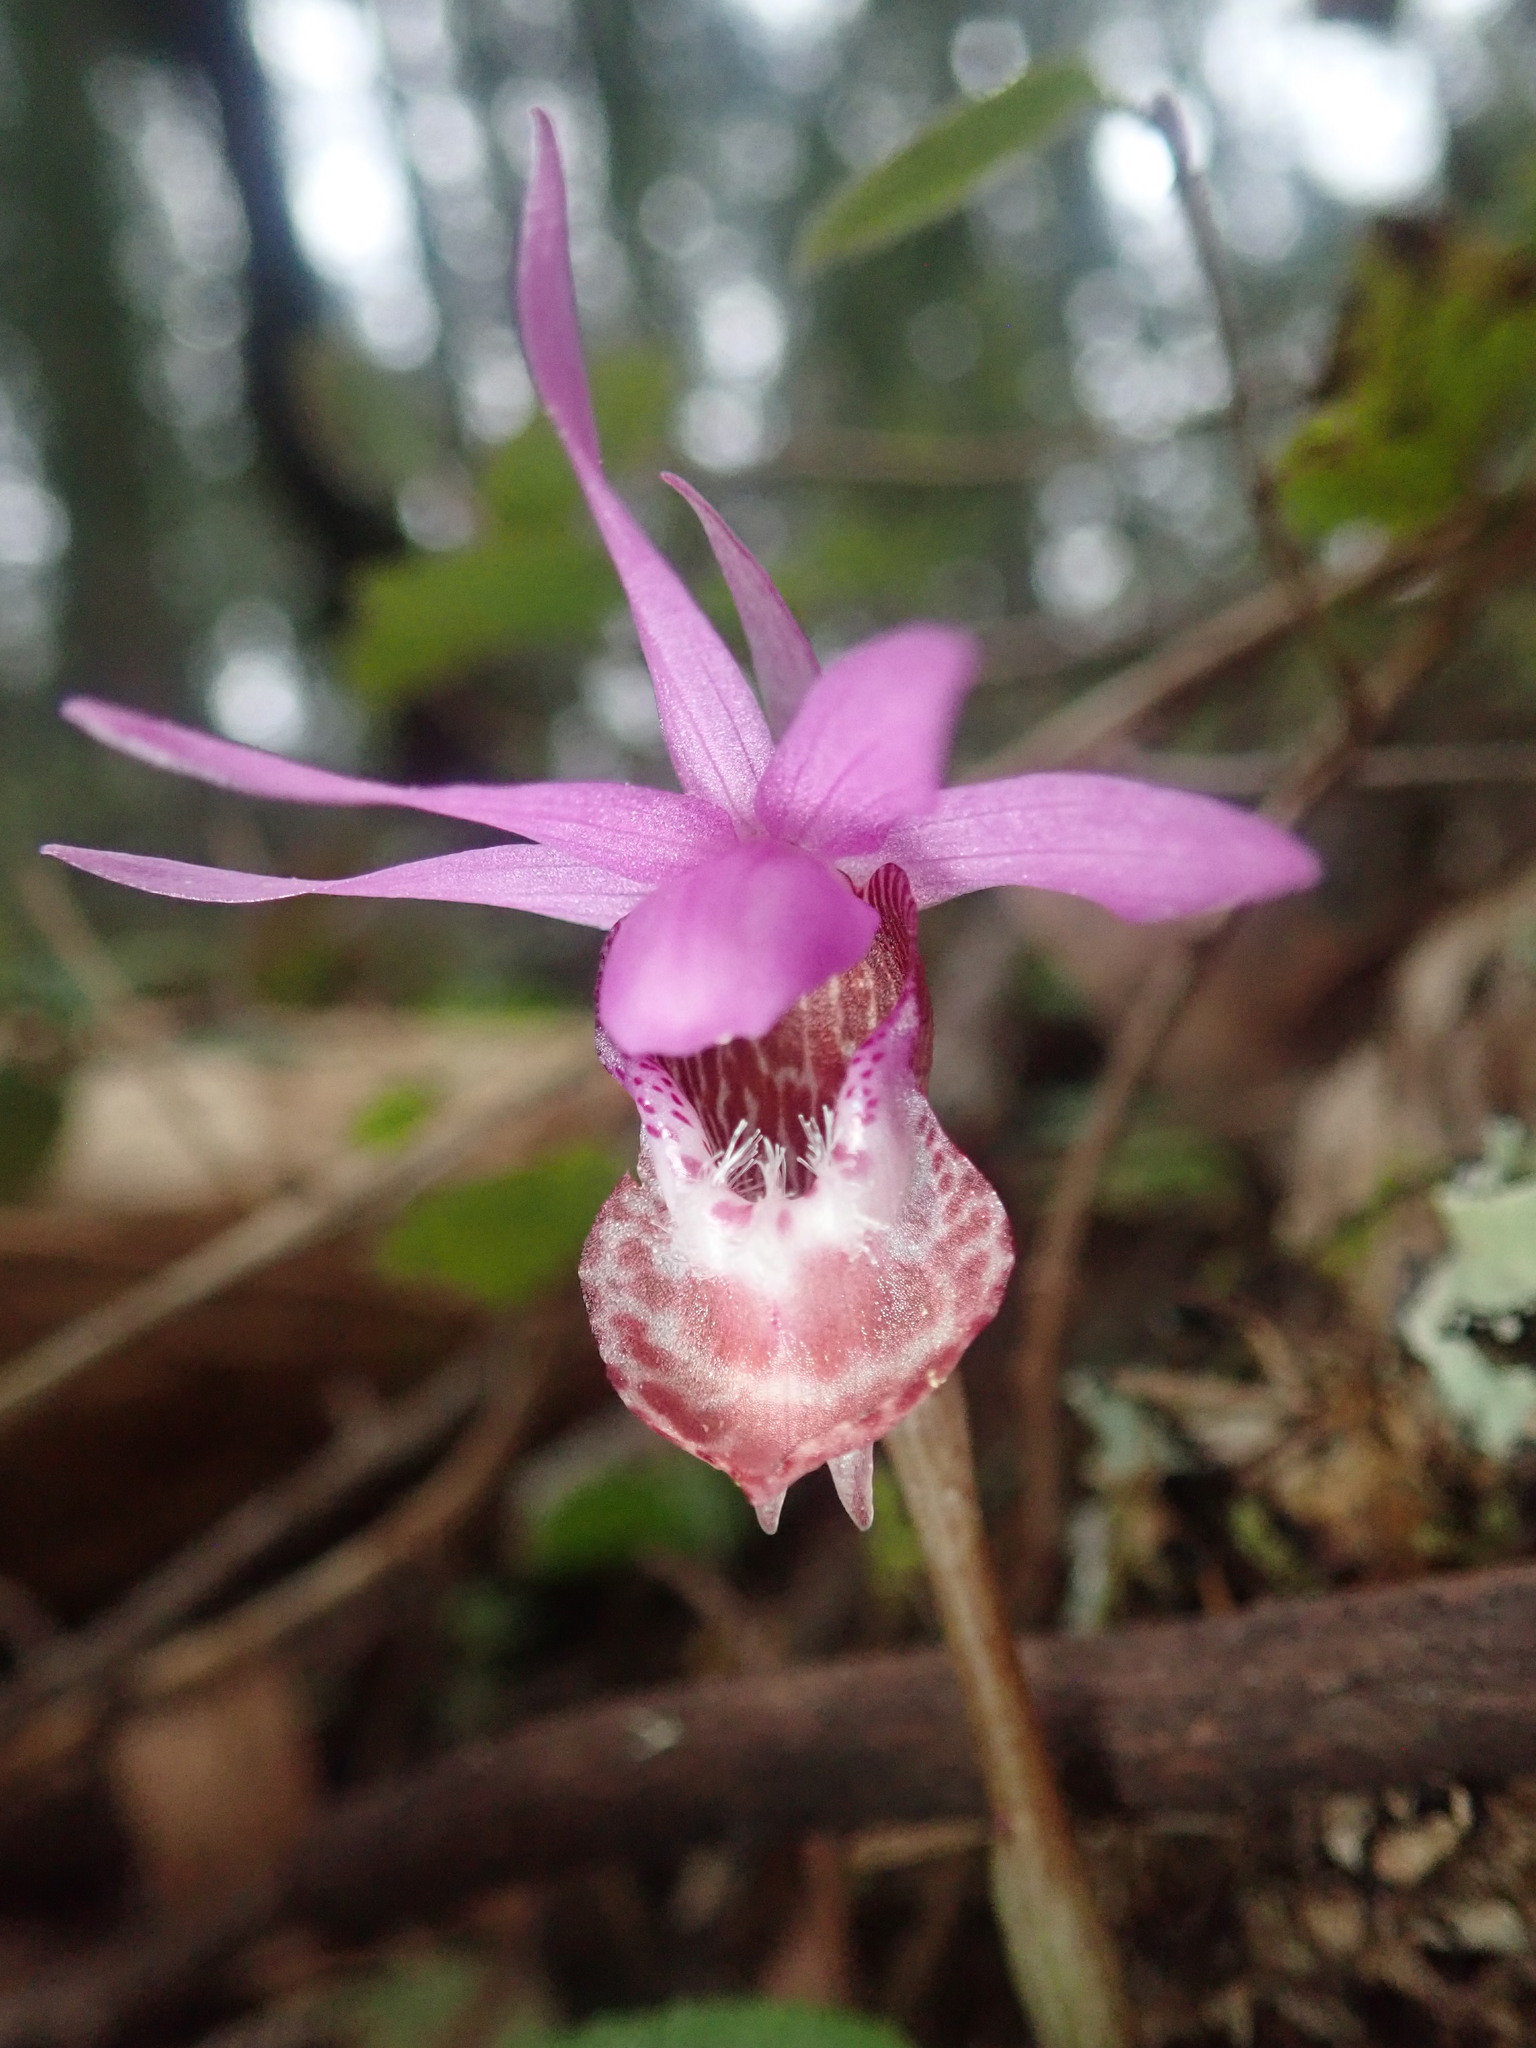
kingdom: Plantae
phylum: Tracheophyta
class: Liliopsida
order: Asparagales
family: Orchidaceae
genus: Calypso
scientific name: Calypso bulbosa
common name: Calypso
